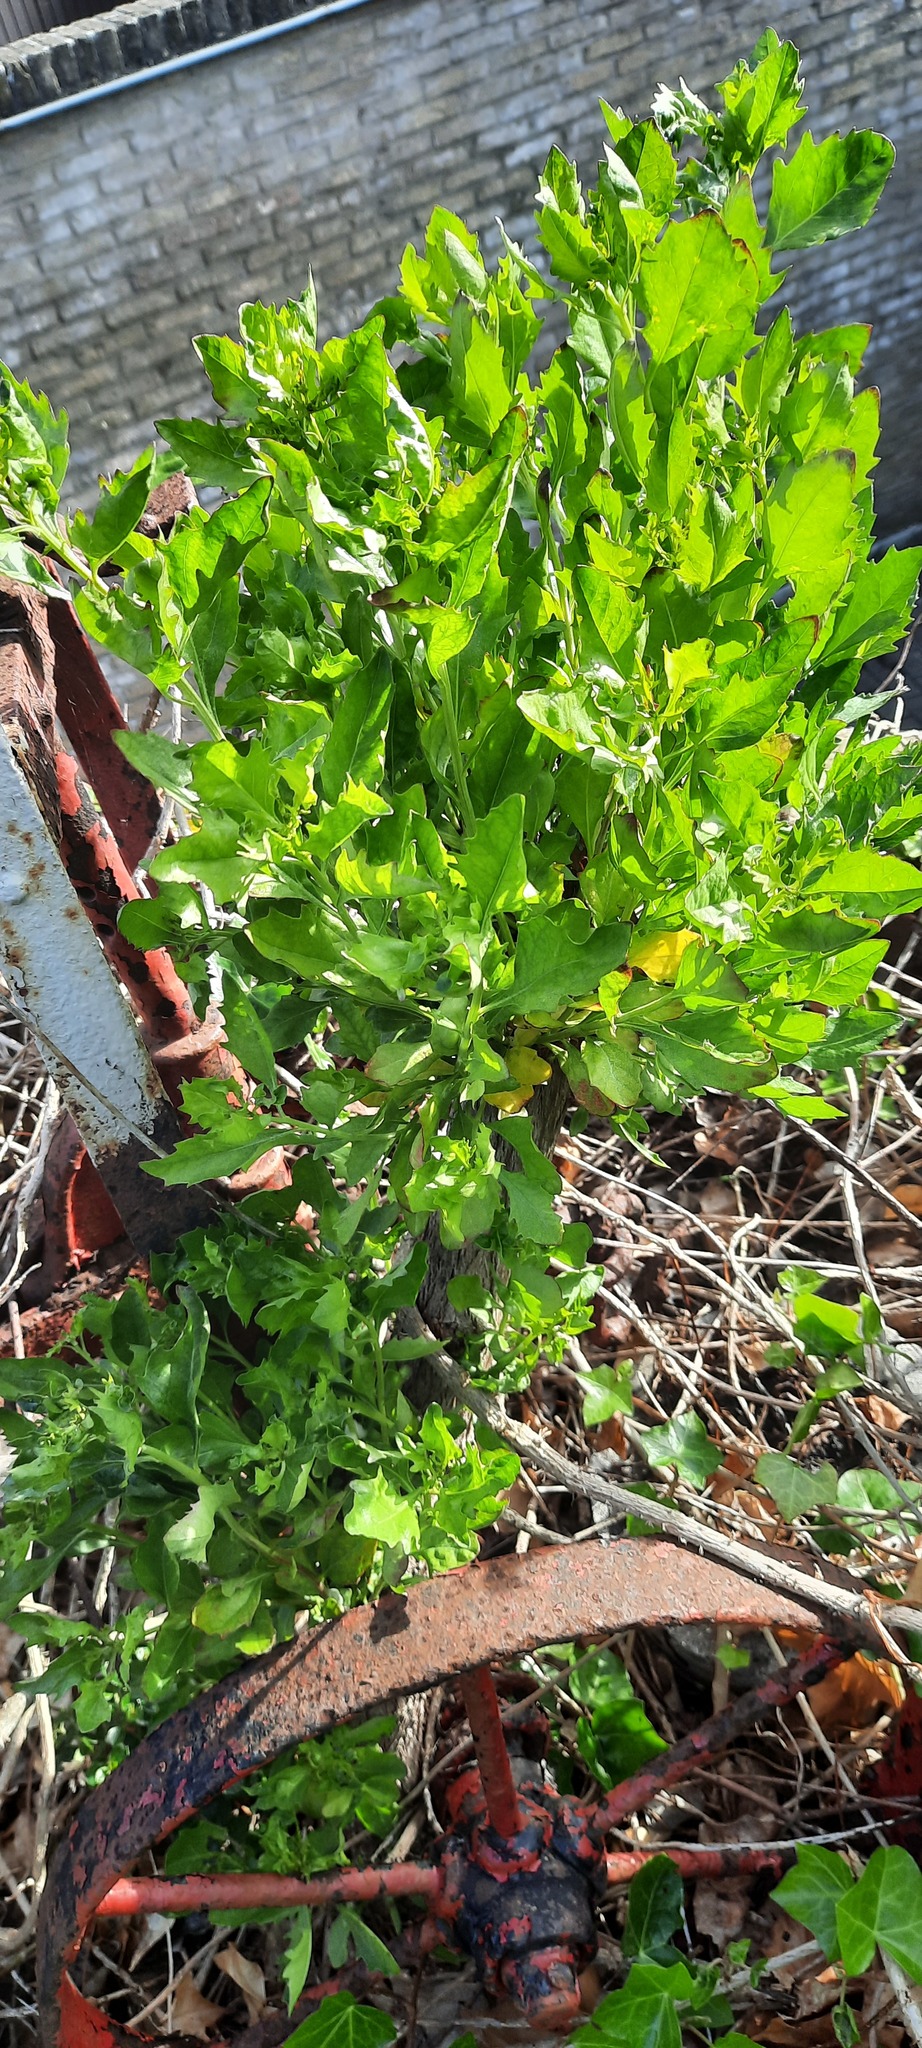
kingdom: Plantae
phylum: Tracheophyta
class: Magnoliopsida
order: Asterales
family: Asteraceae
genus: Baccharis
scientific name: Baccharis halimifolia
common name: Eastern baccharis
